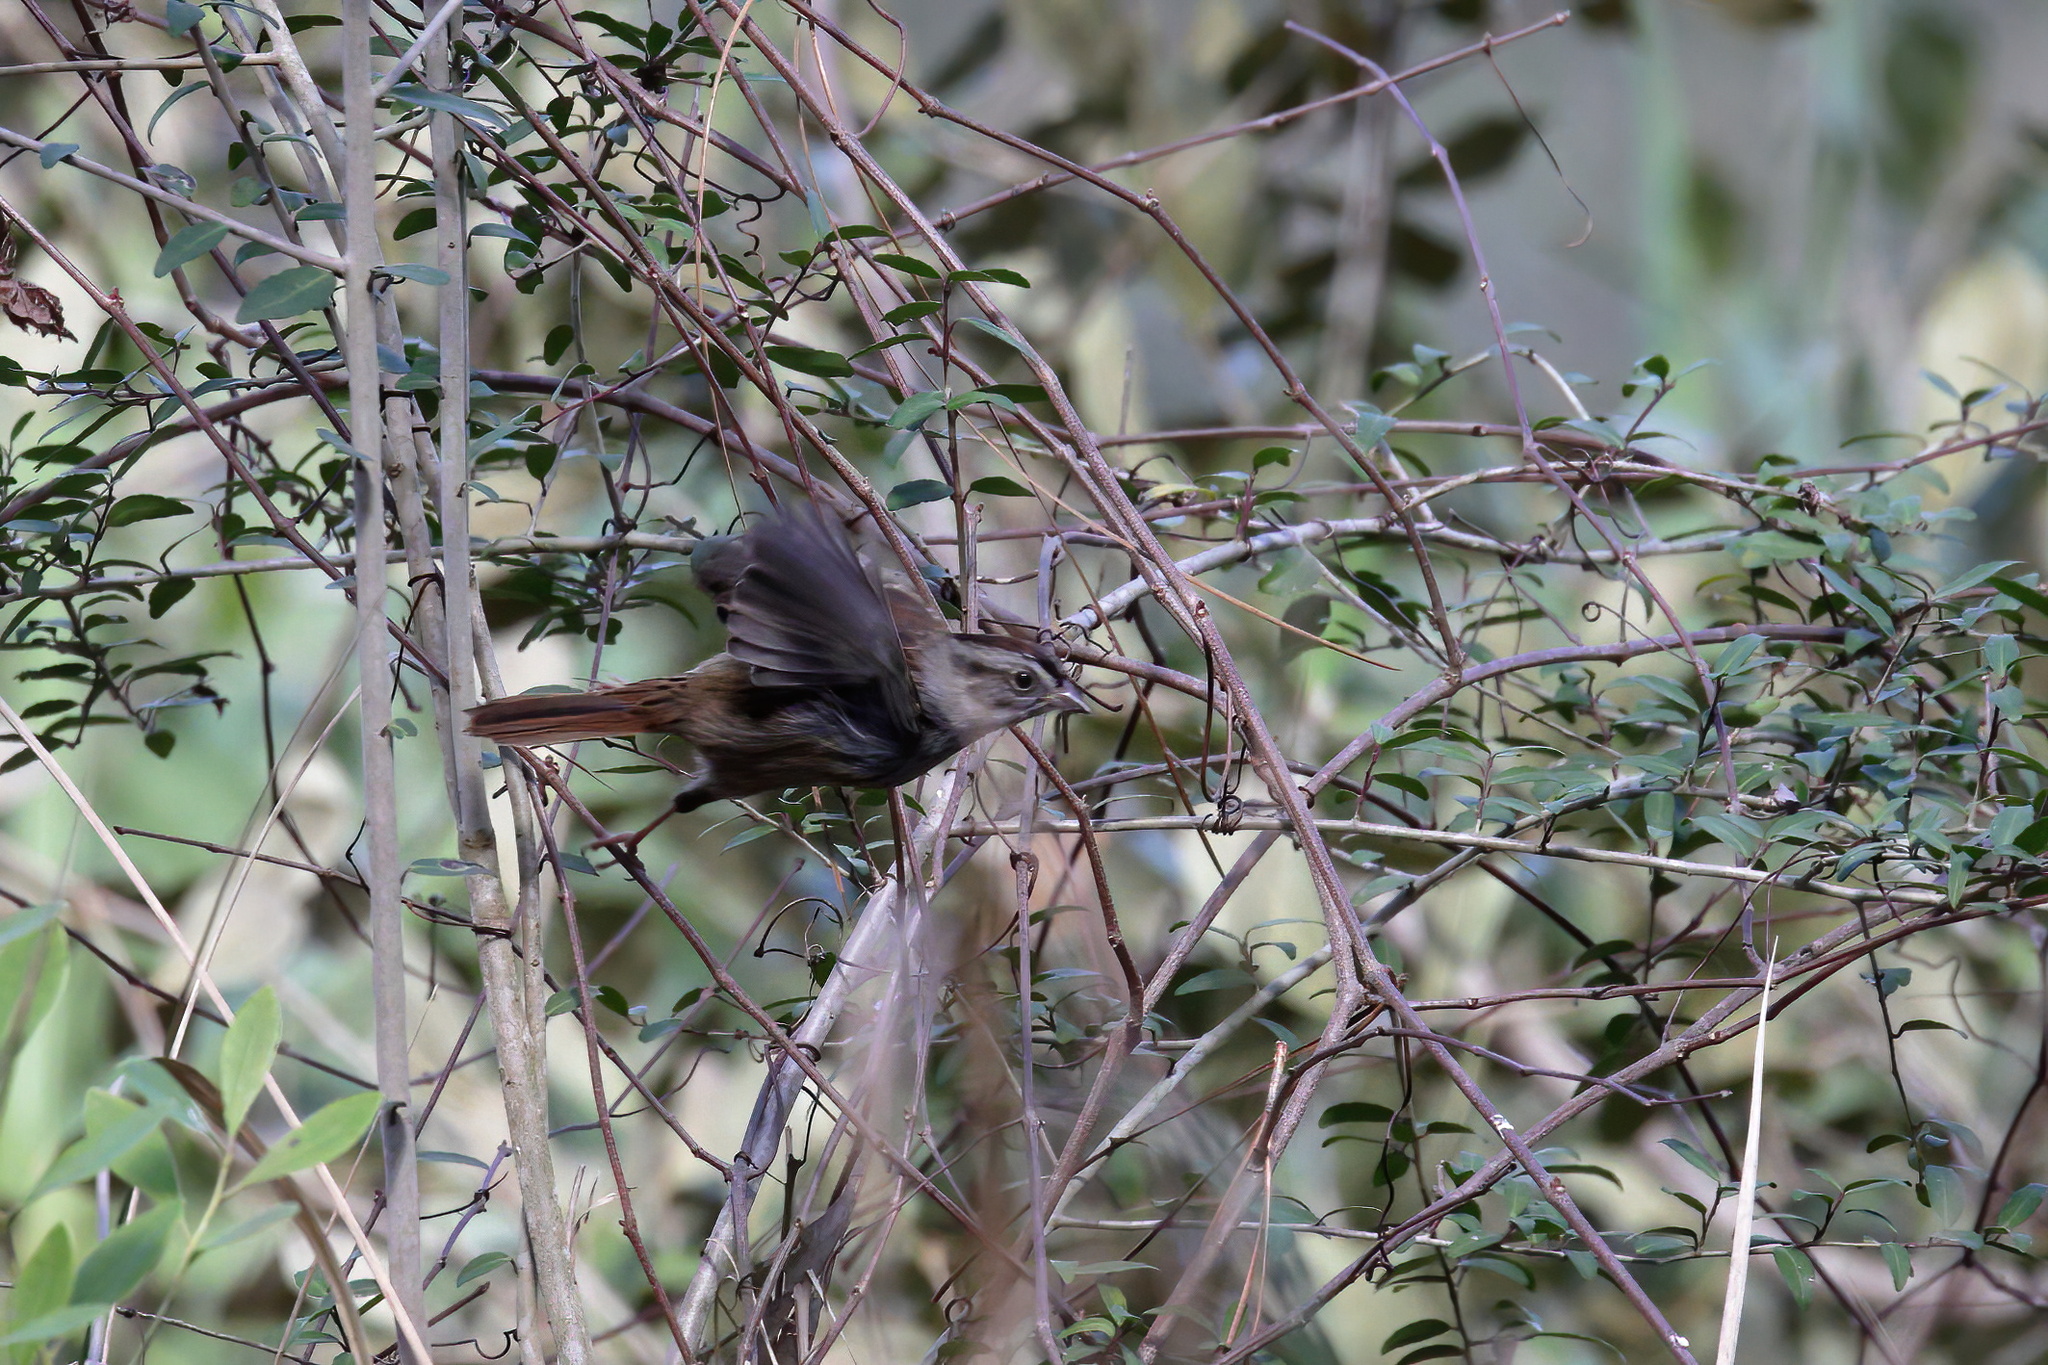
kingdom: Animalia
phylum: Chordata
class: Aves
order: Passeriformes
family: Passerellidae
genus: Melospiza
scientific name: Melospiza georgiana
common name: Swamp sparrow
